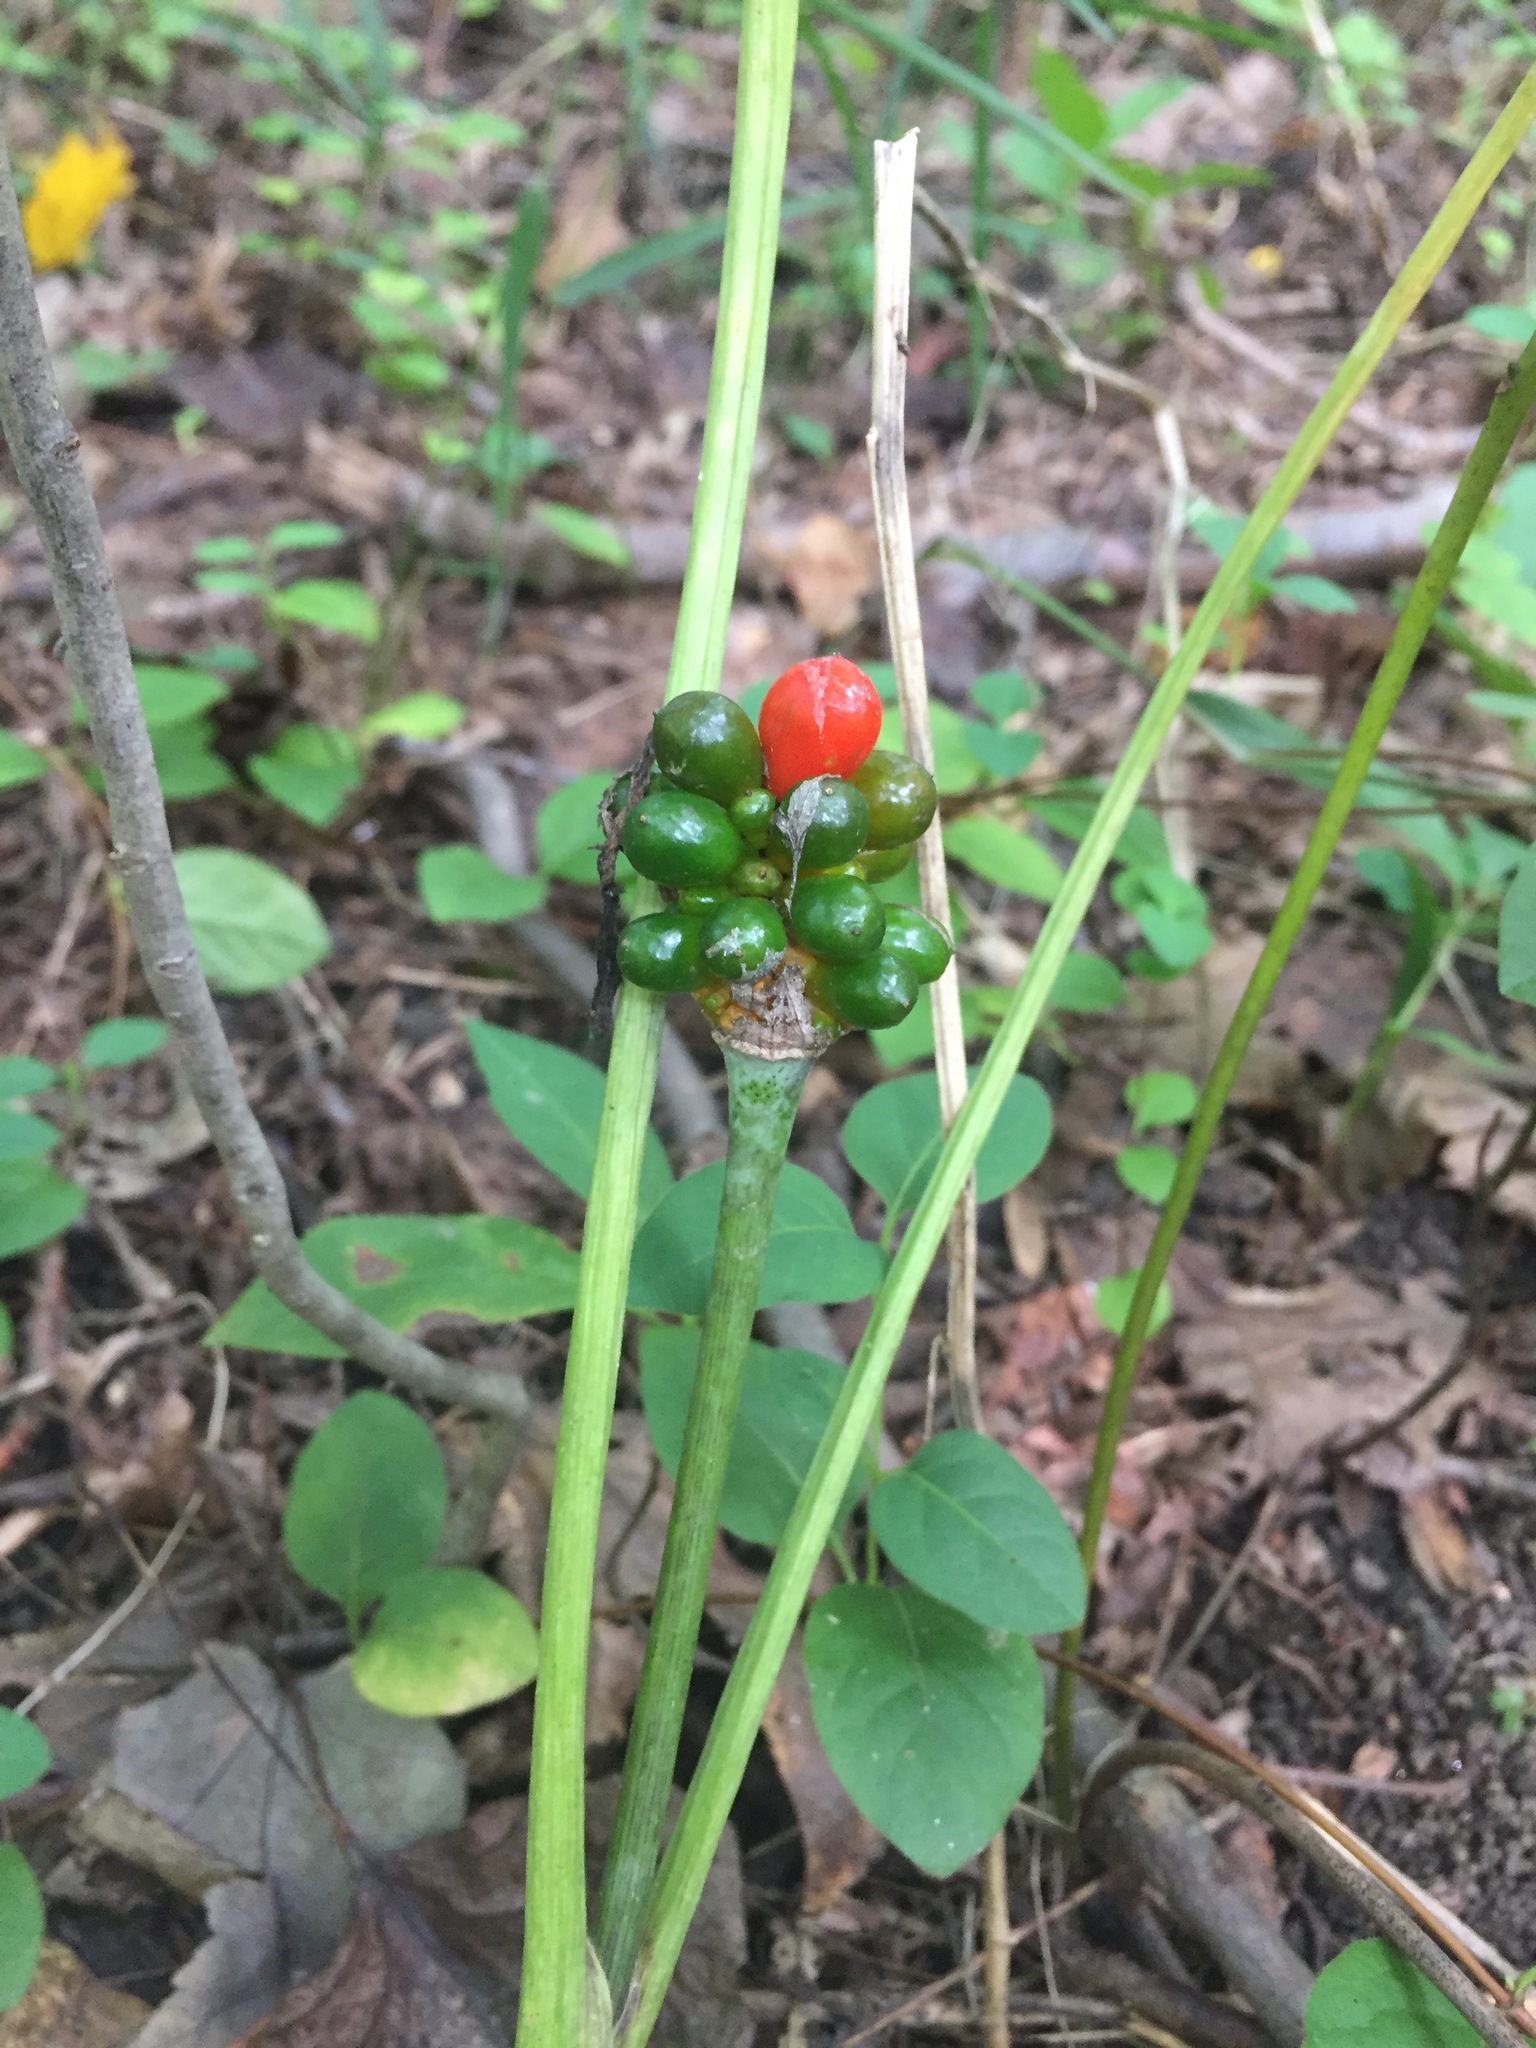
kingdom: Plantae
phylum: Tracheophyta
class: Liliopsida
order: Alismatales
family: Araceae
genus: Arisaema
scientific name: Arisaema triphyllum
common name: Jack-in-the-pulpit
